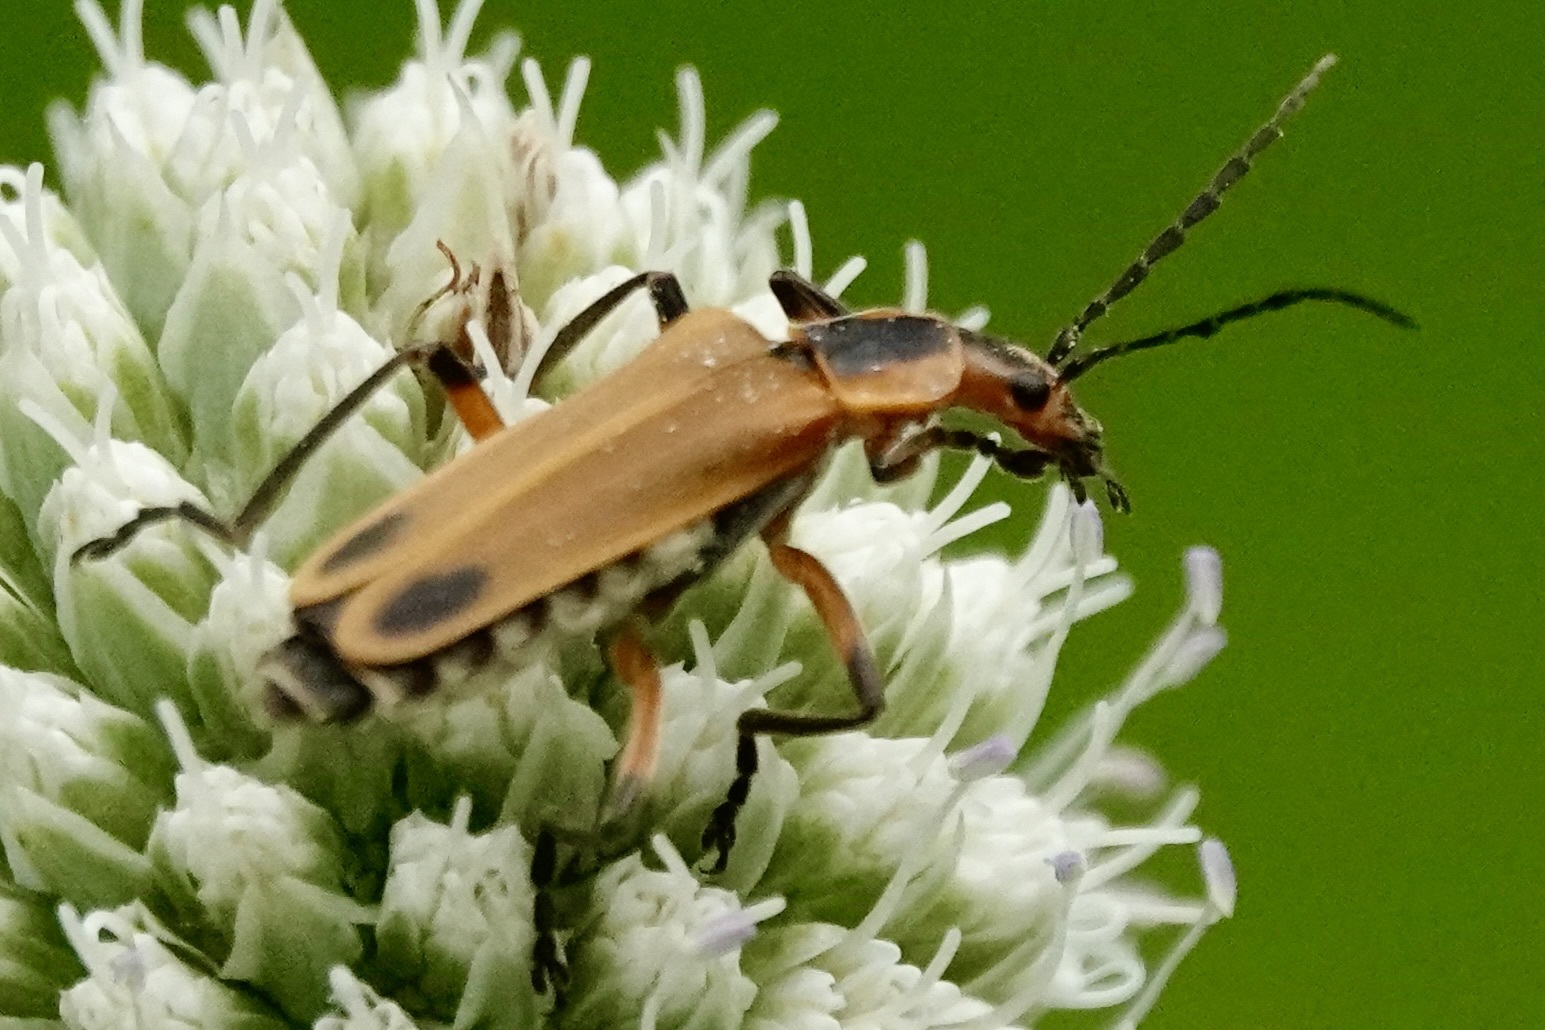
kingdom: Animalia
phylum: Arthropoda
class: Insecta
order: Coleoptera
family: Cantharidae
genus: Chauliognathus
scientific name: Chauliognathus marginatus
